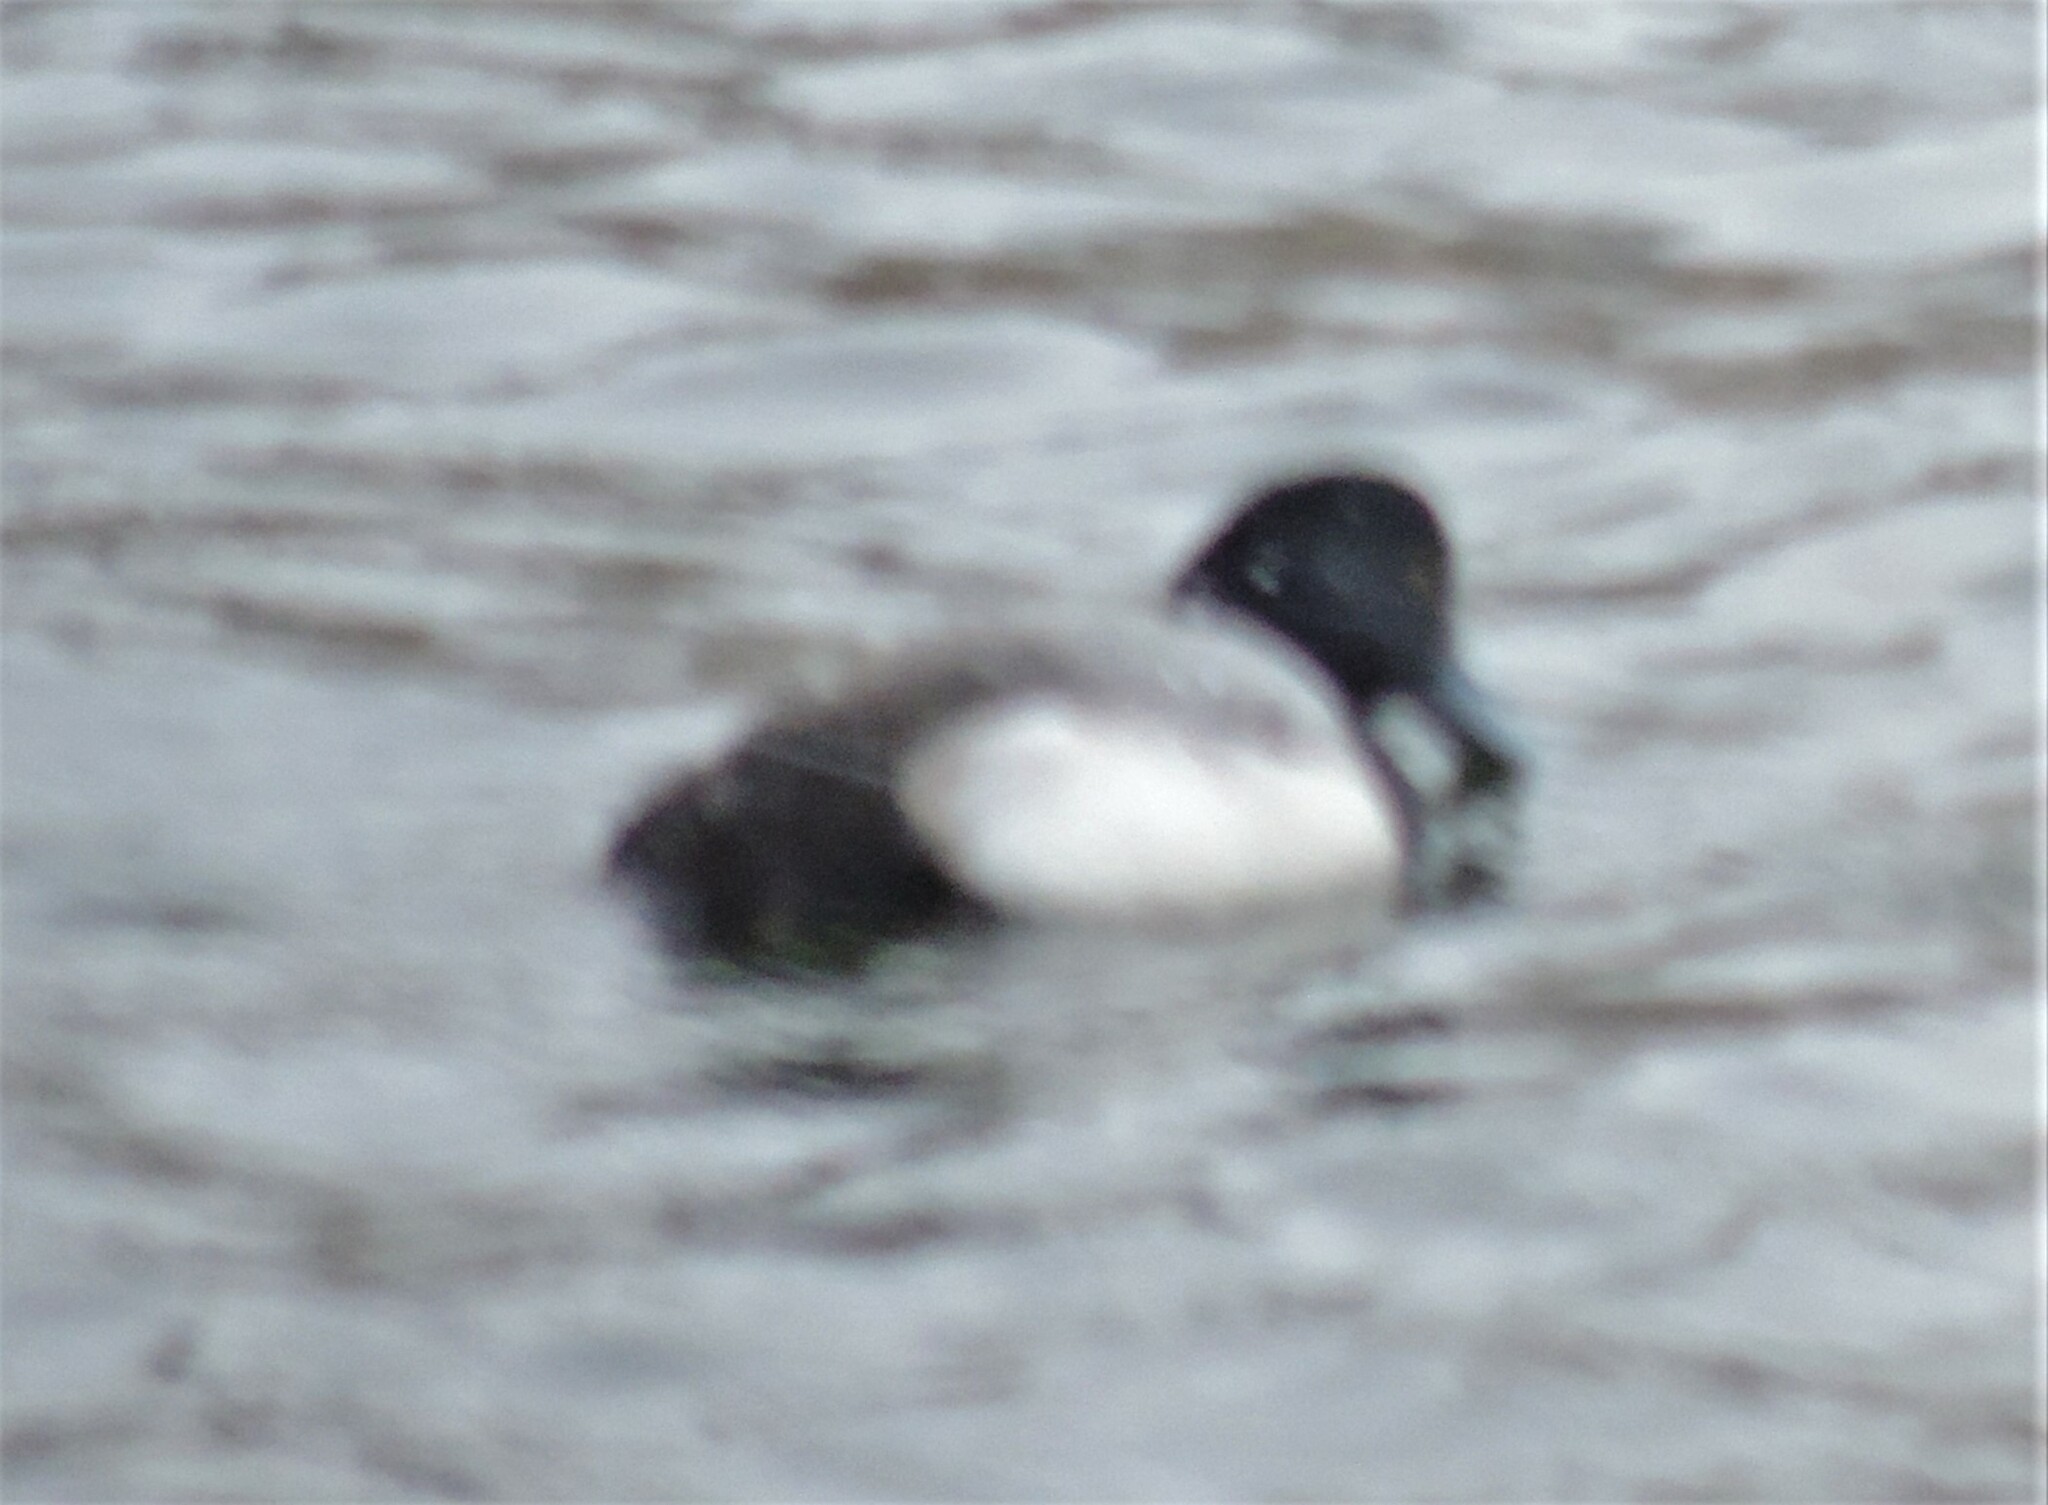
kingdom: Animalia
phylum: Chordata
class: Aves
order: Anseriformes
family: Anatidae
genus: Aythya
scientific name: Aythya marila
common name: Greater scaup
